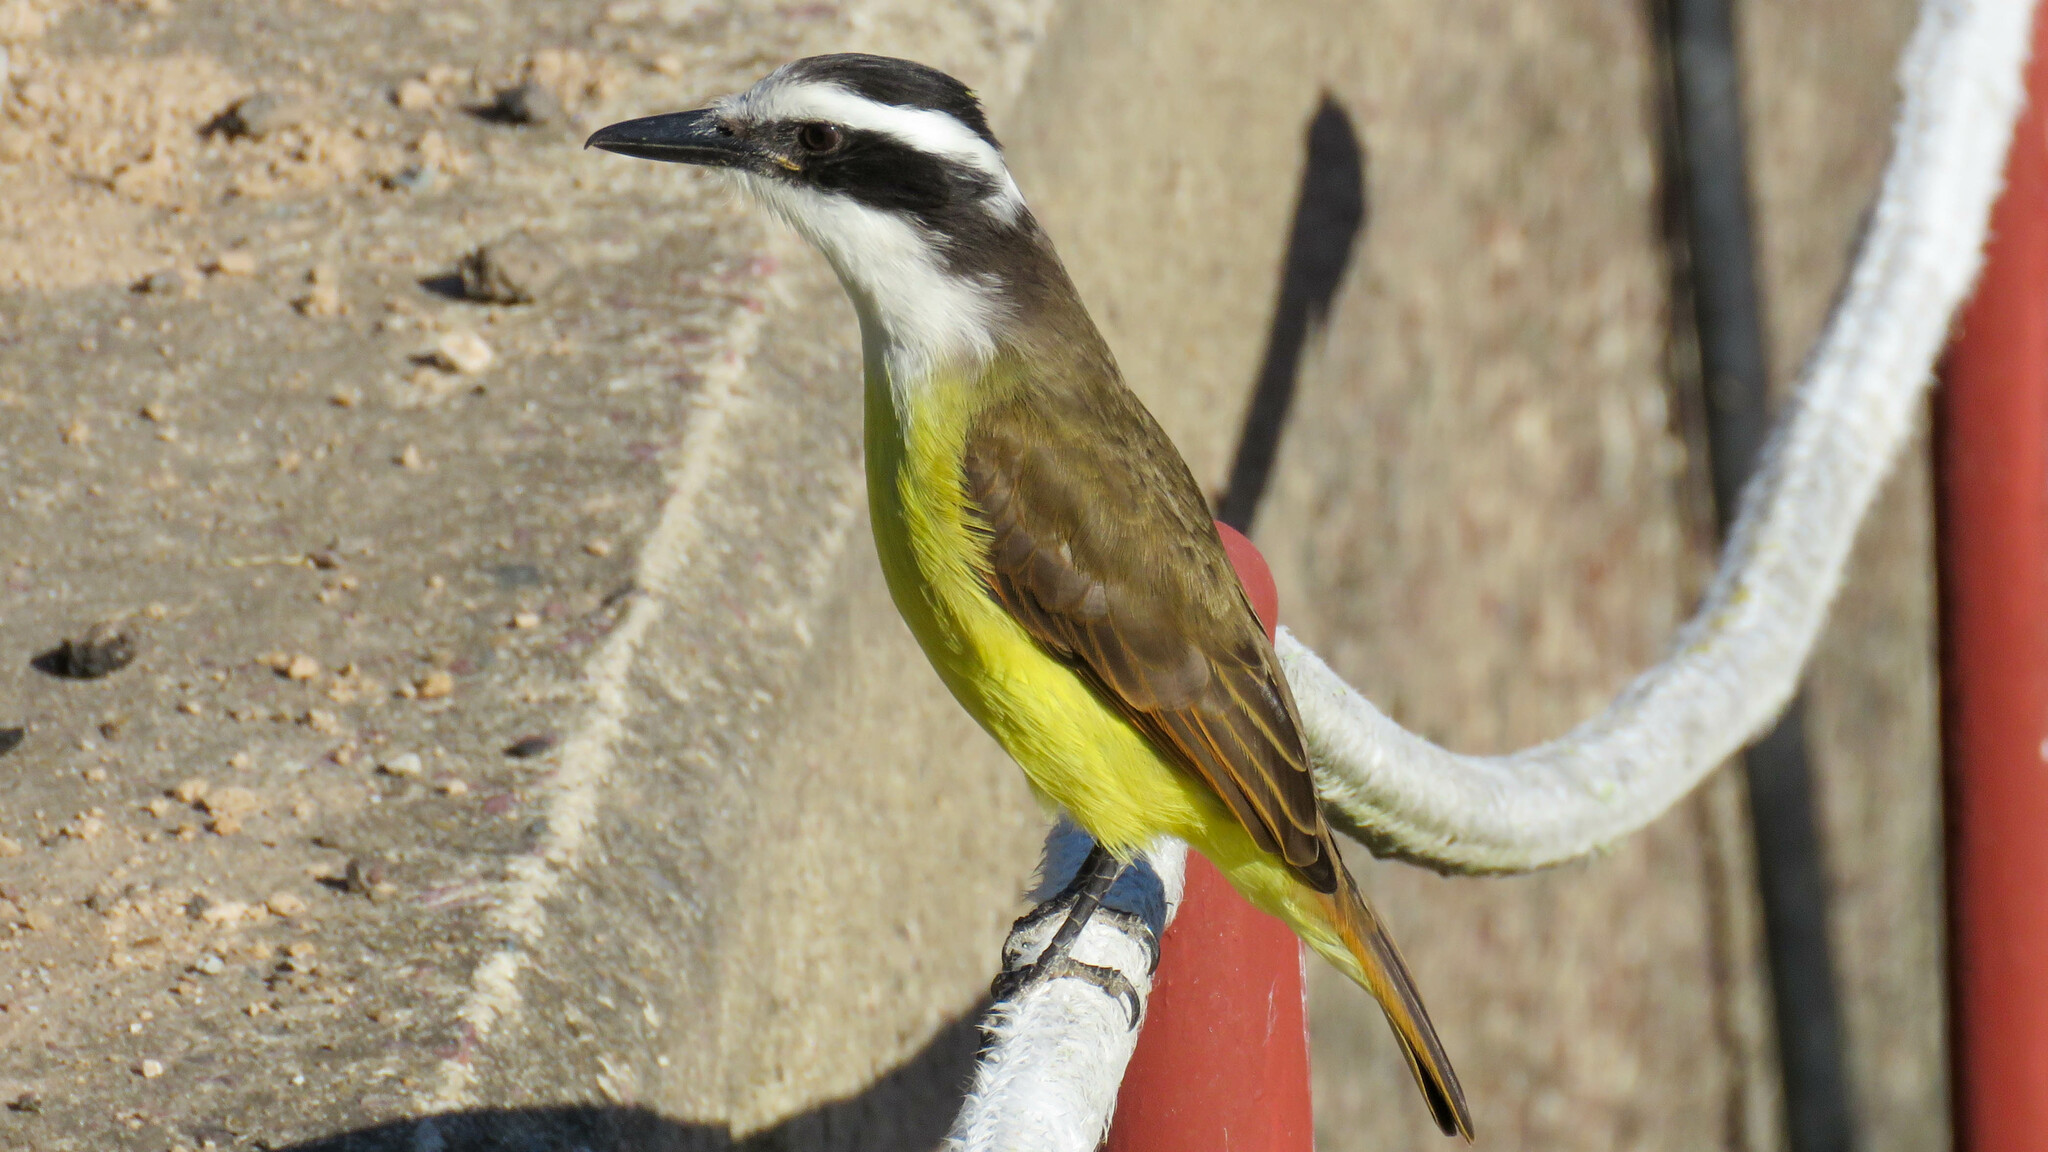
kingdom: Animalia
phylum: Chordata
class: Aves
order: Passeriformes
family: Tyrannidae
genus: Pitangus
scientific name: Pitangus sulphuratus
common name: Great kiskadee
